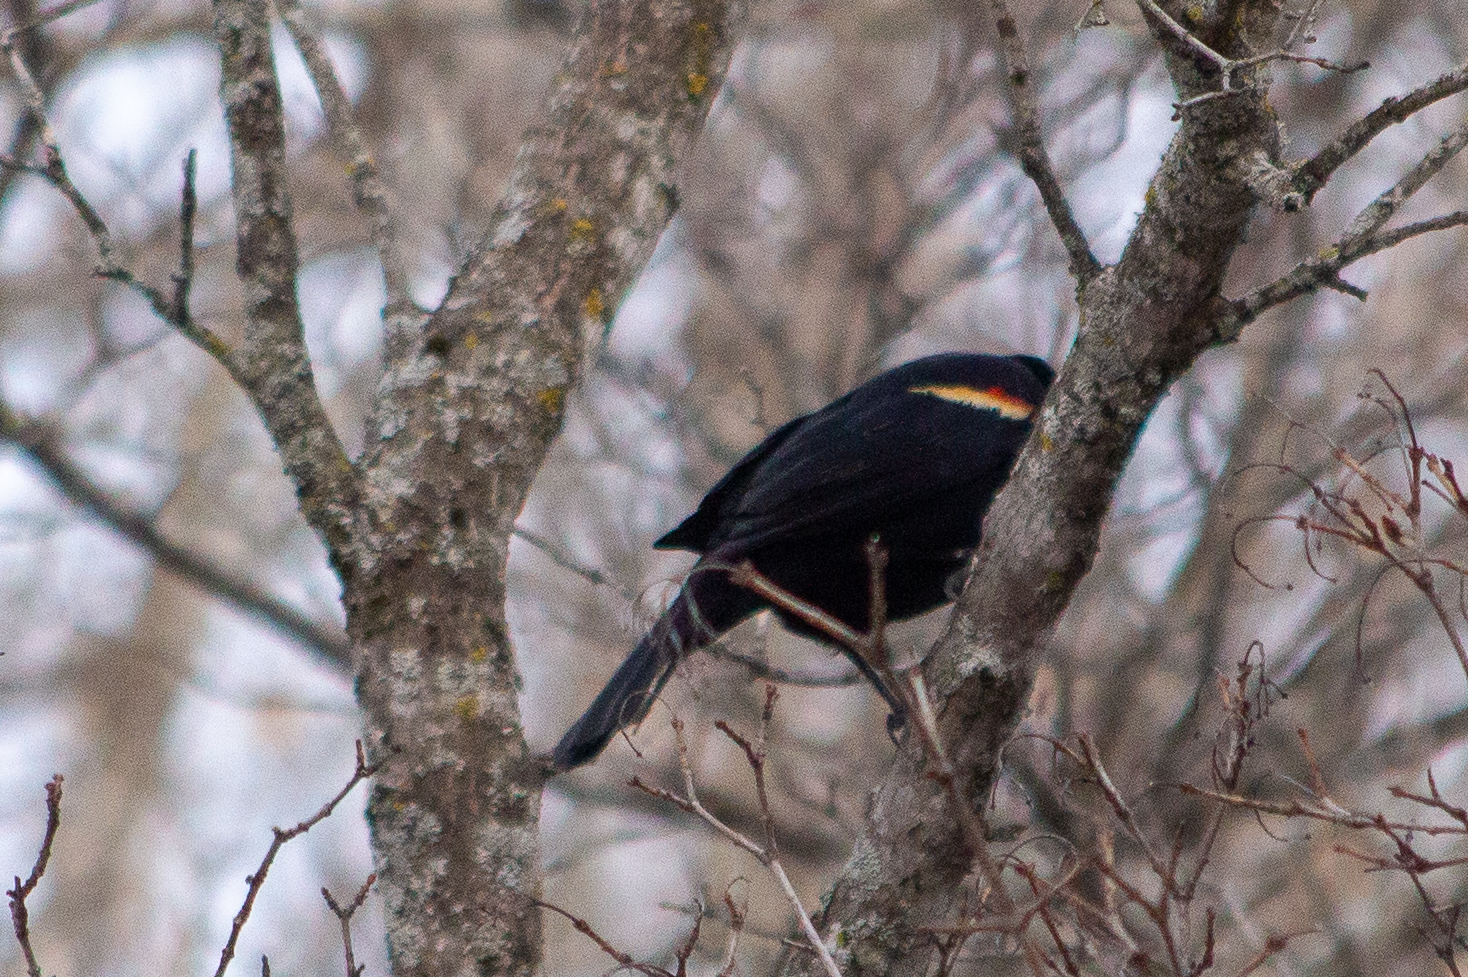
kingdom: Animalia
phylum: Chordata
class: Aves
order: Passeriformes
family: Icteridae
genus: Agelaius
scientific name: Agelaius phoeniceus
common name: Red-winged blackbird
